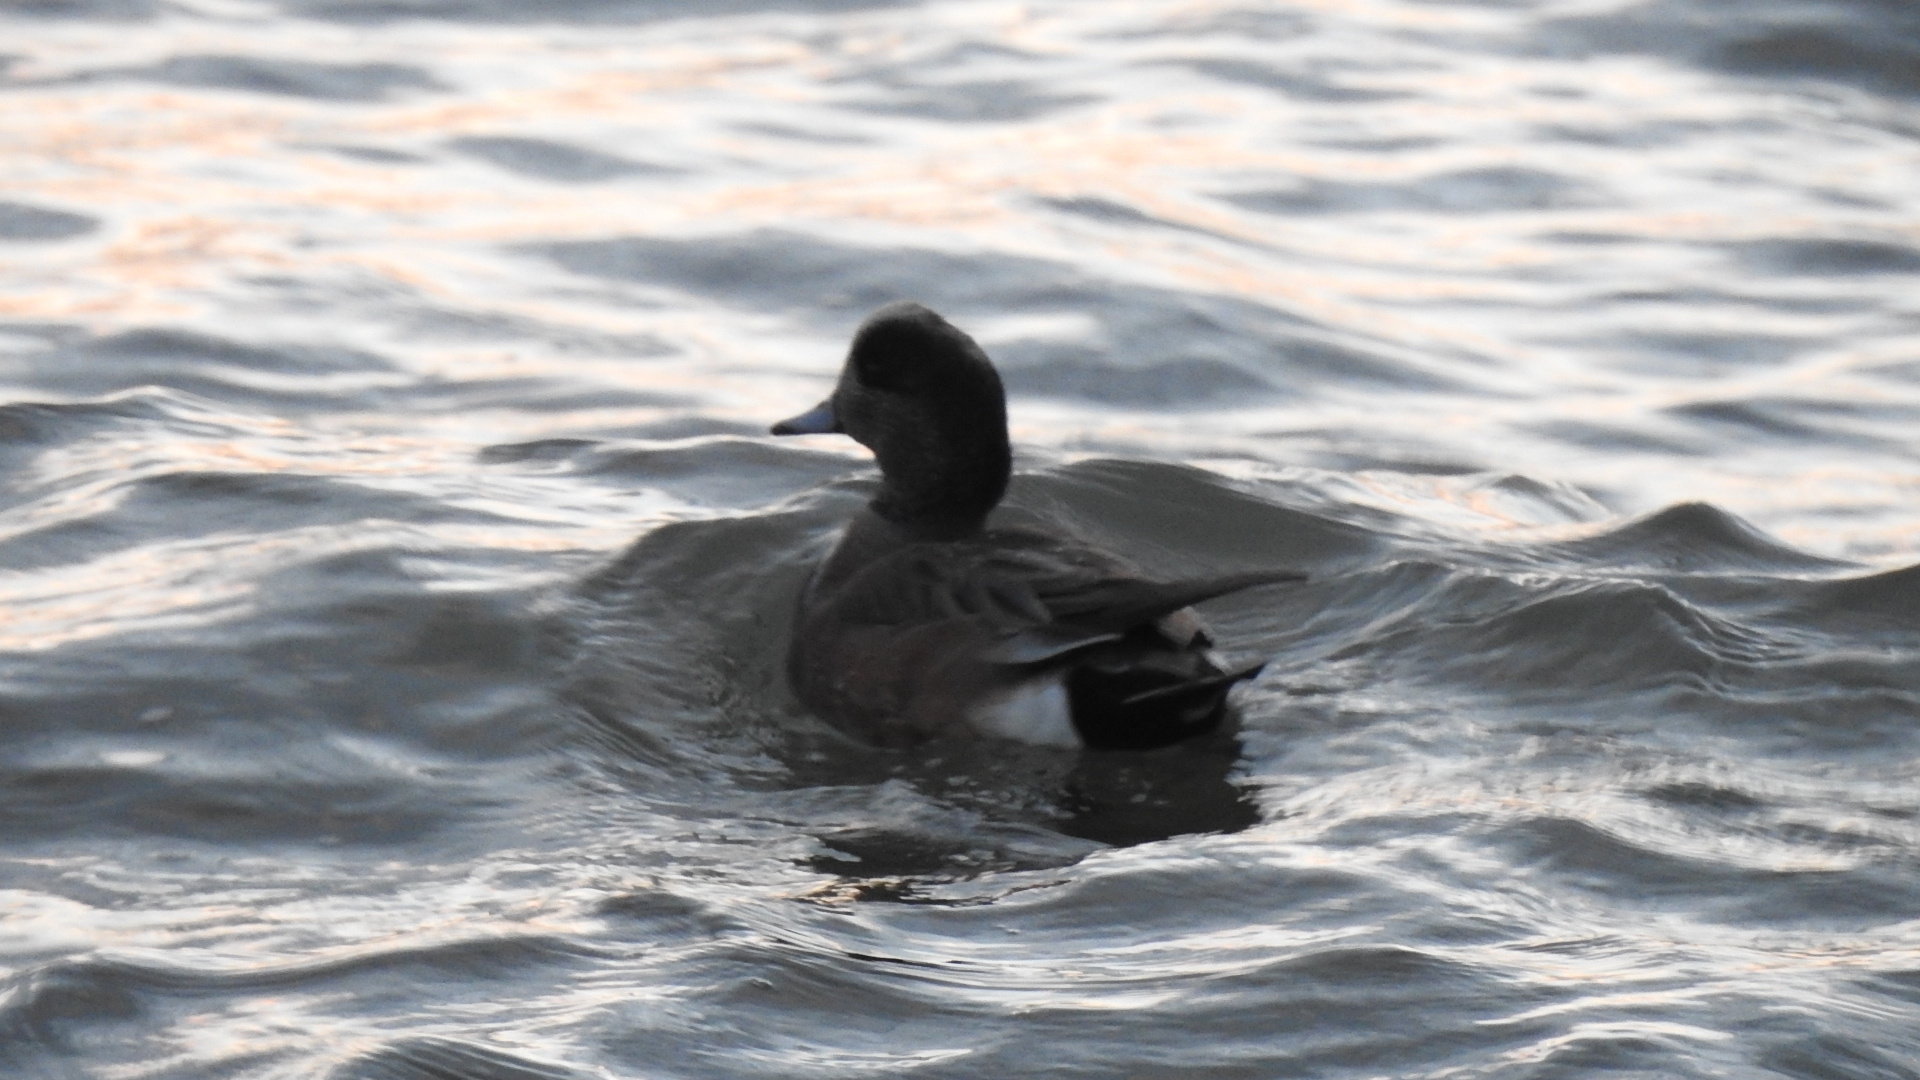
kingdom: Animalia
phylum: Chordata
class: Aves
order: Anseriformes
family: Anatidae
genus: Mareca
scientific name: Mareca americana
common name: American wigeon
